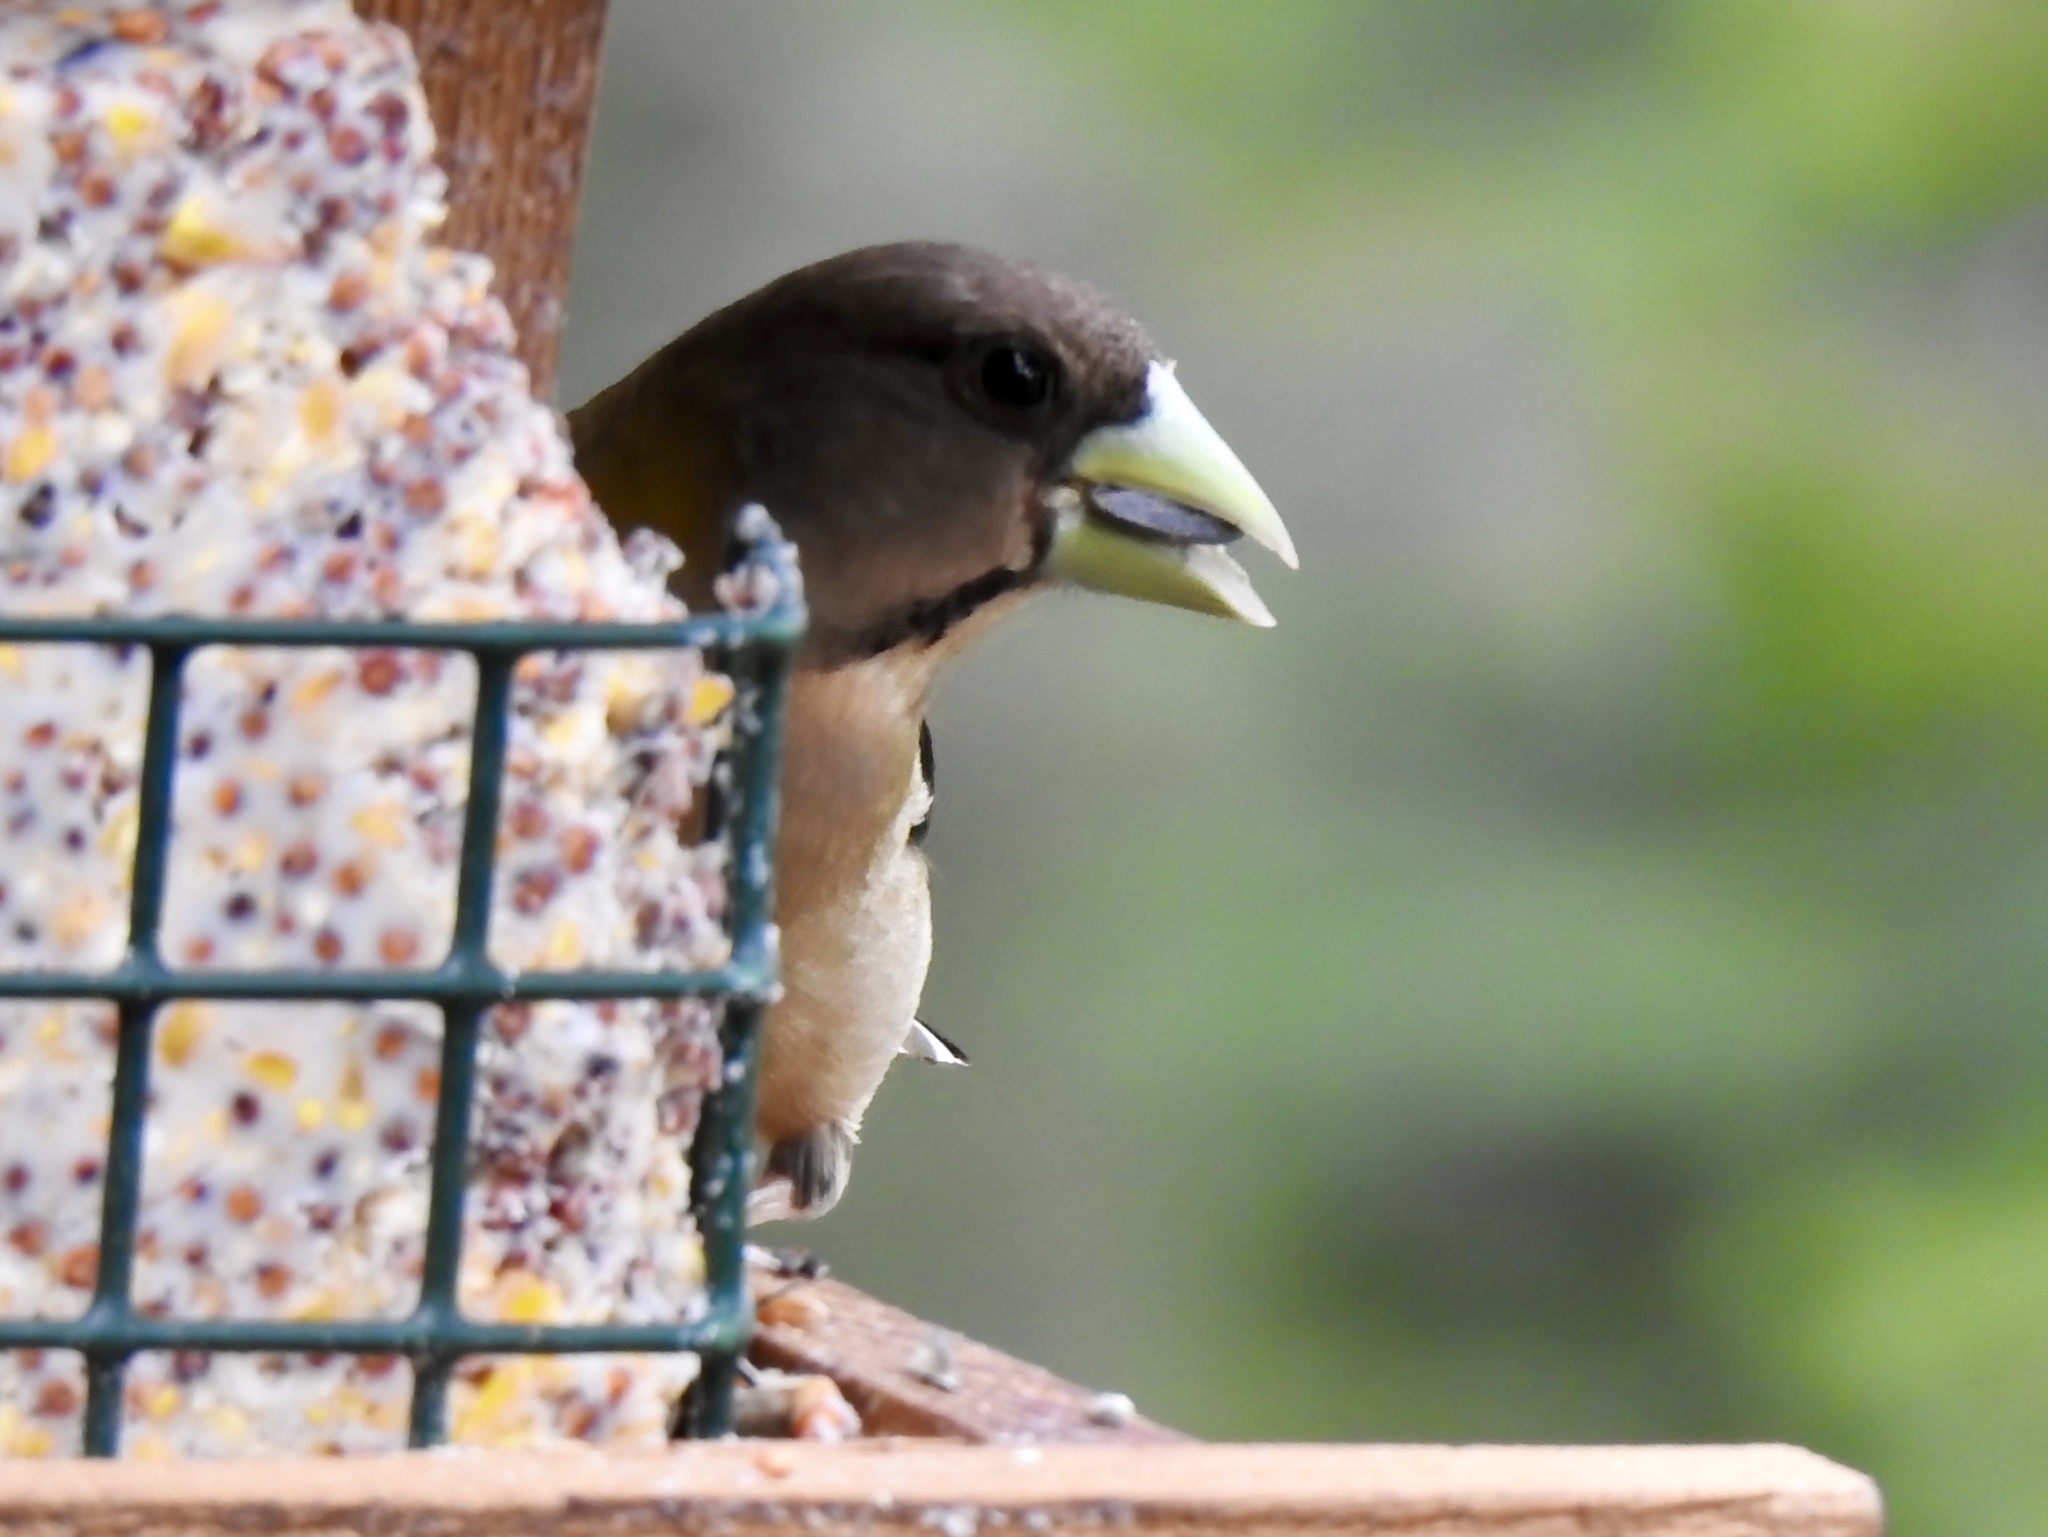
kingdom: Animalia
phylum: Chordata
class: Aves
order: Passeriformes
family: Fringillidae
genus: Hesperiphona
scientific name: Hesperiphona vespertina
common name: Evening grosbeak
